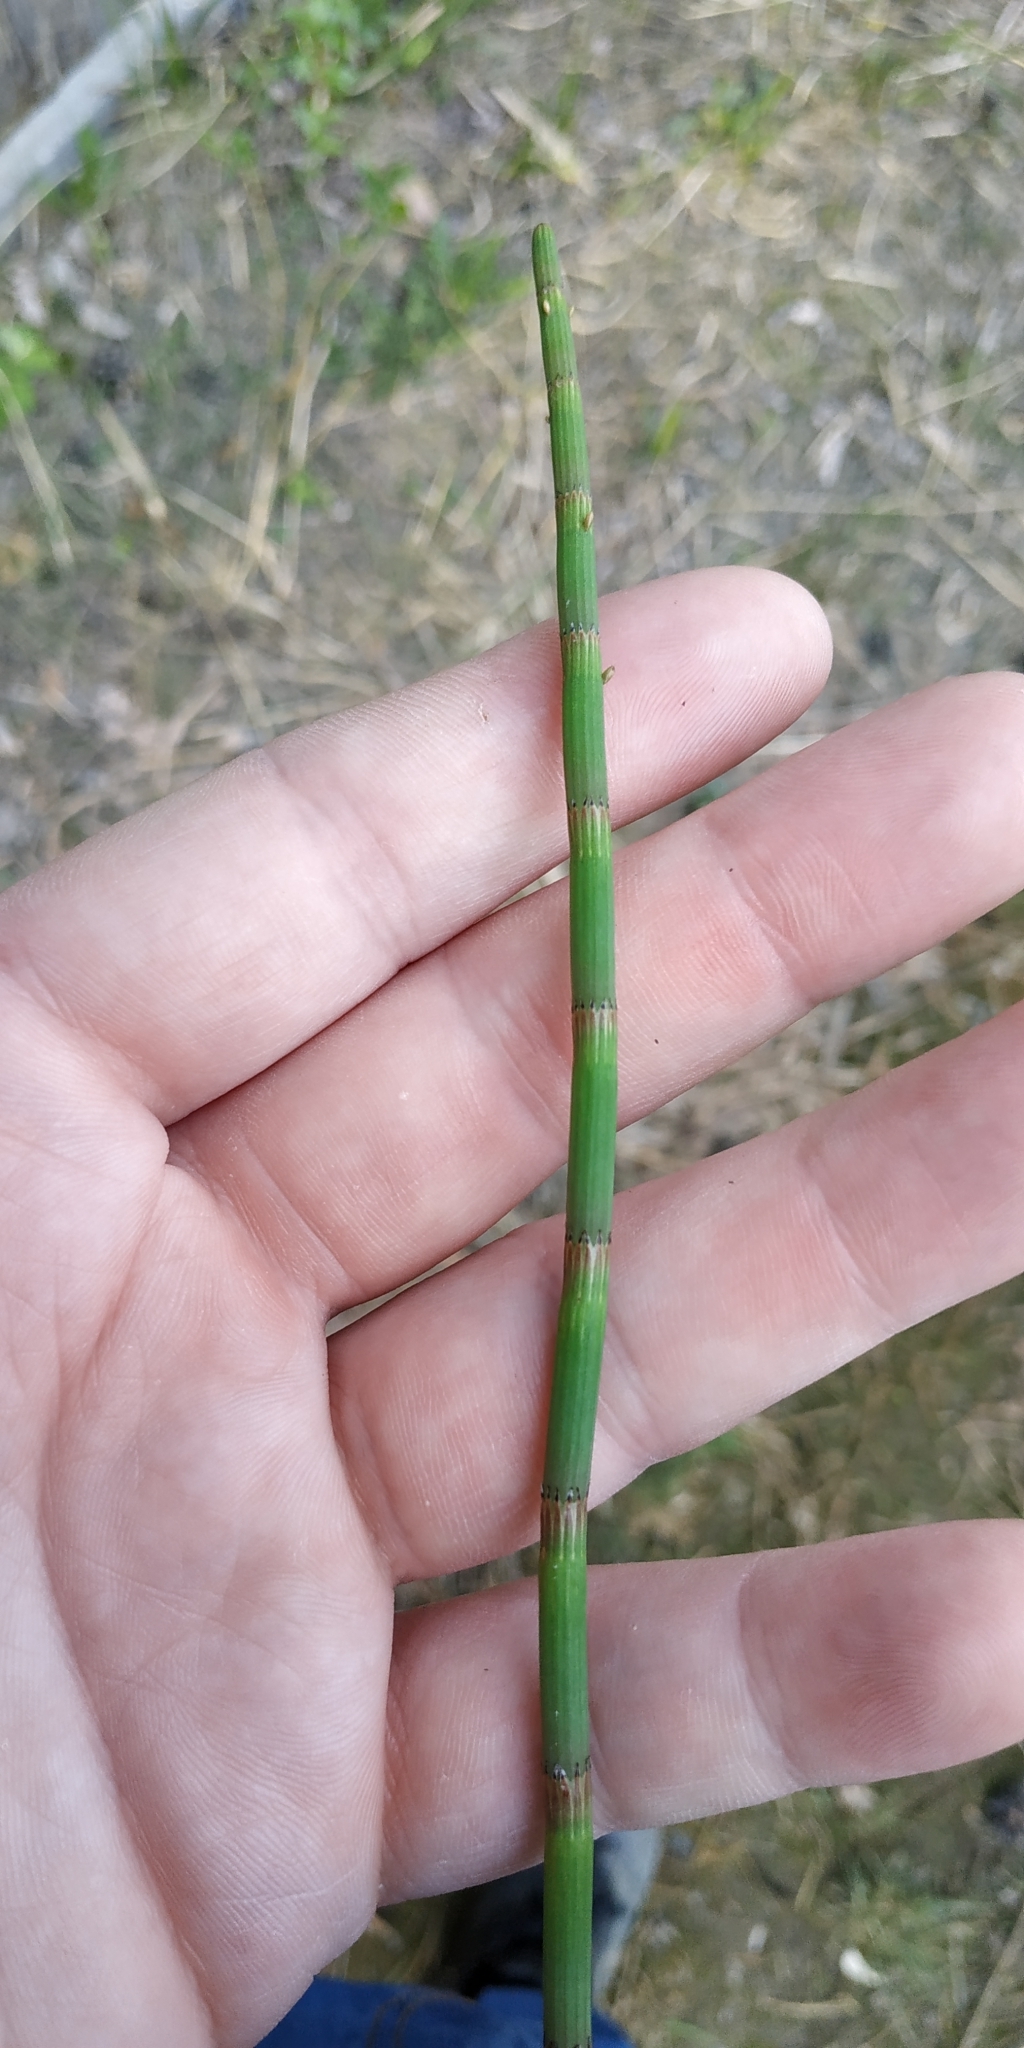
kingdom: Plantae
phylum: Tracheophyta
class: Polypodiopsida
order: Equisetales
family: Equisetaceae
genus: Equisetum
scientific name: Equisetum fluviatile
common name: Water horsetail
